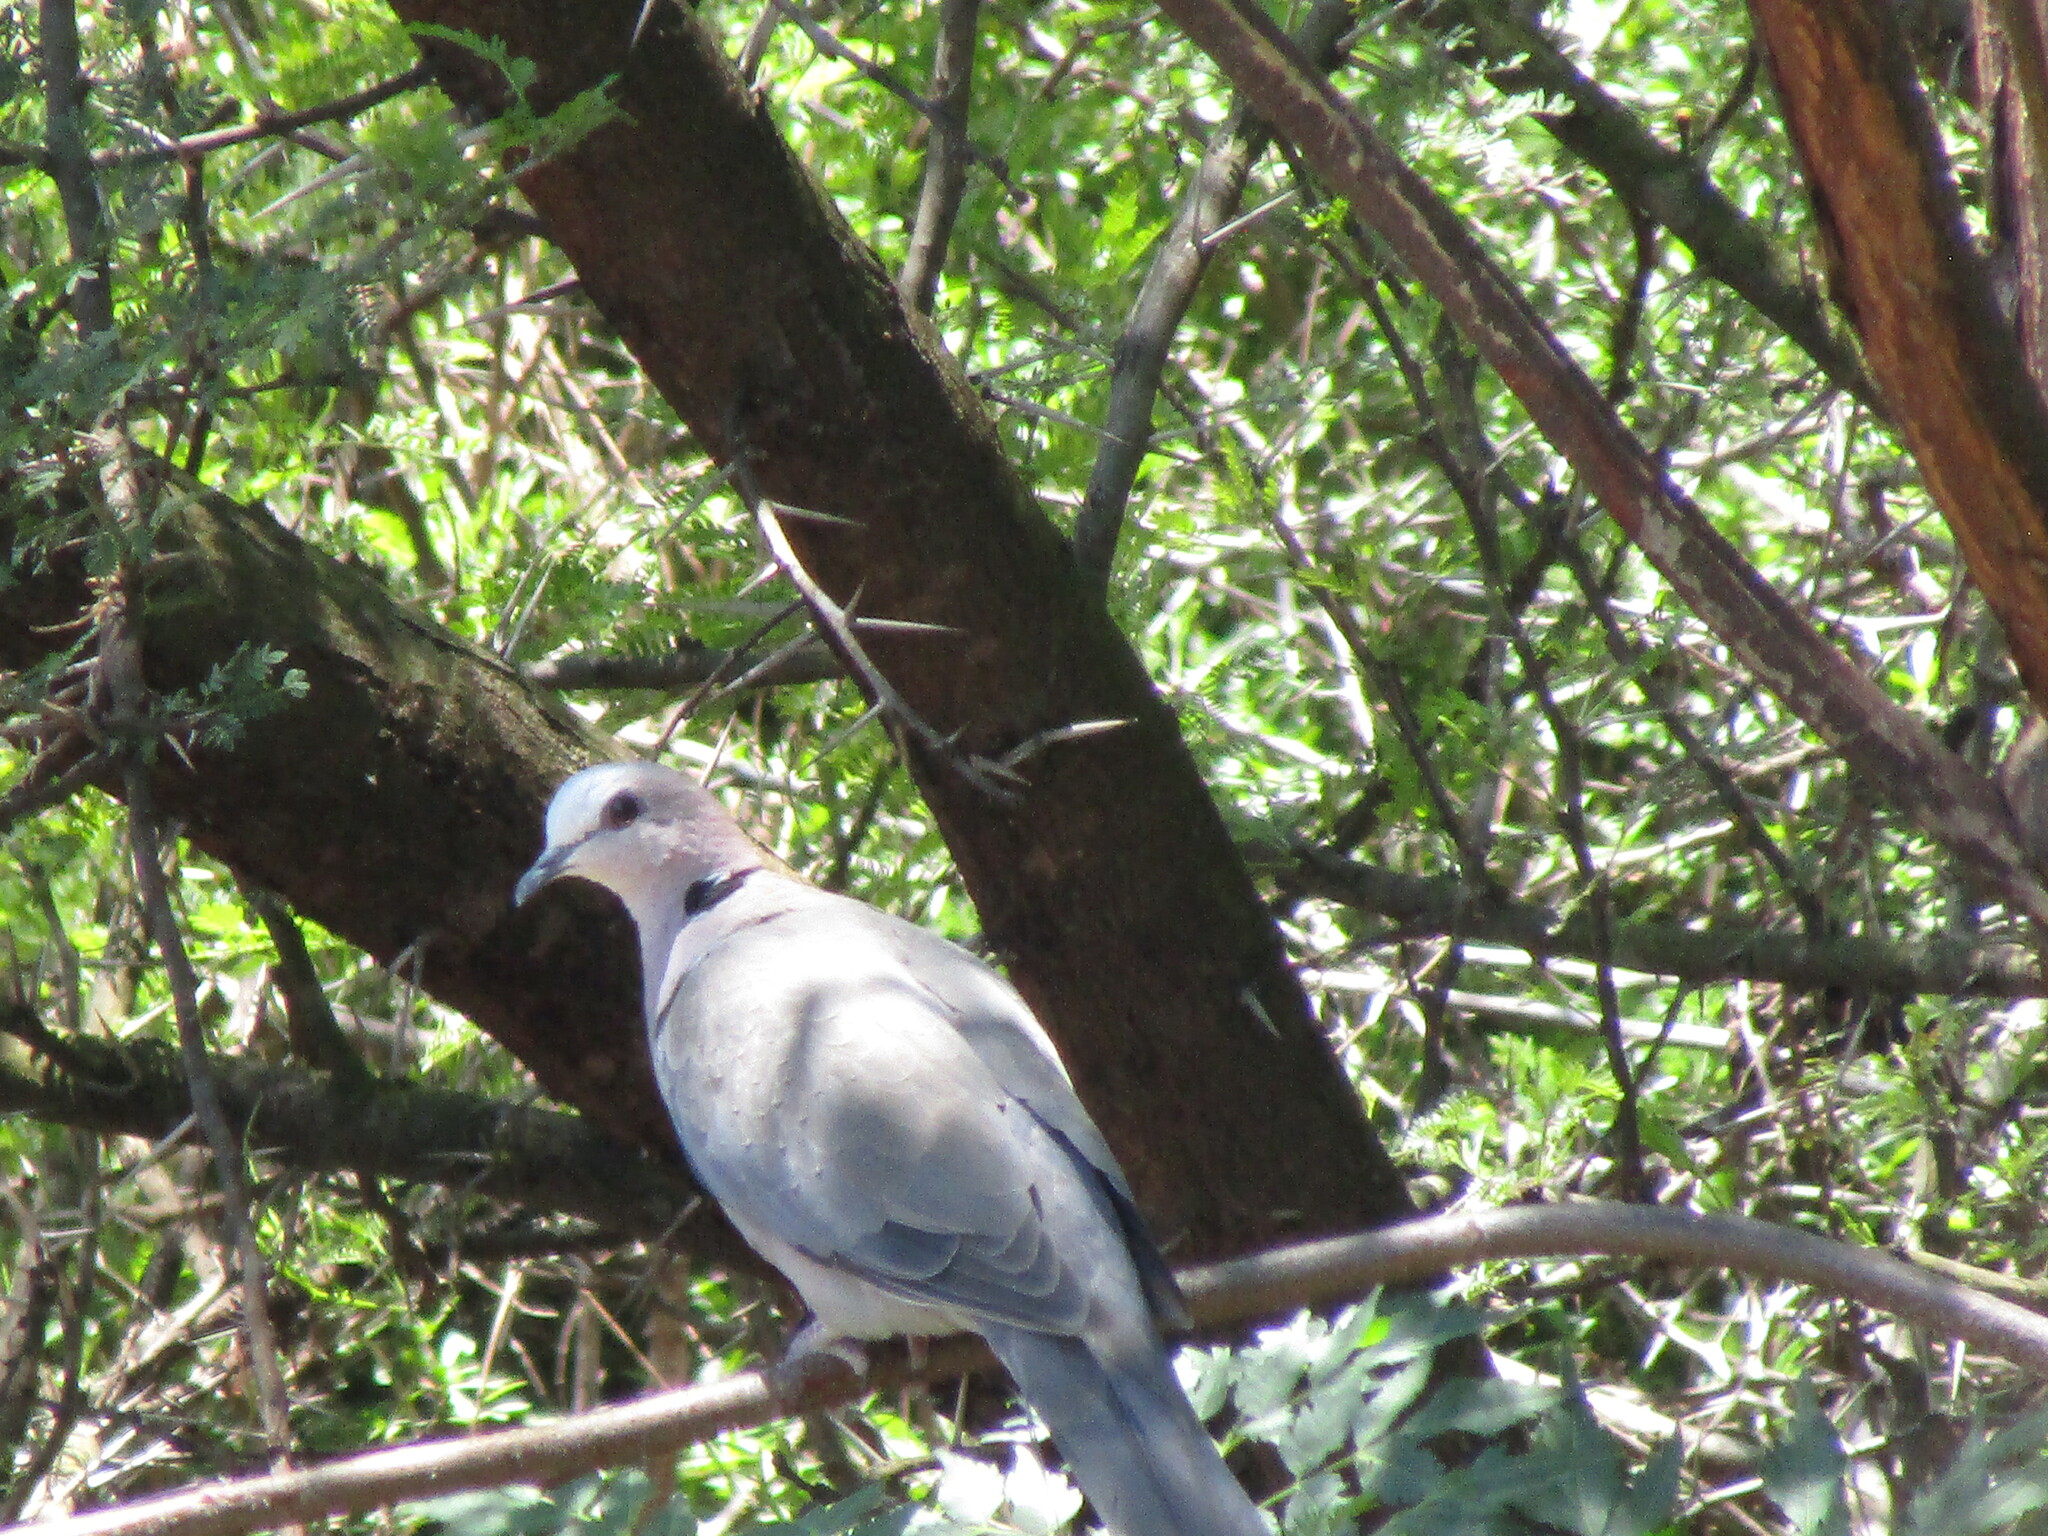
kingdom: Animalia
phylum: Chordata
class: Aves
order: Columbiformes
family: Columbidae
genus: Streptopelia
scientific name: Streptopelia semitorquata
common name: Red-eyed dove
